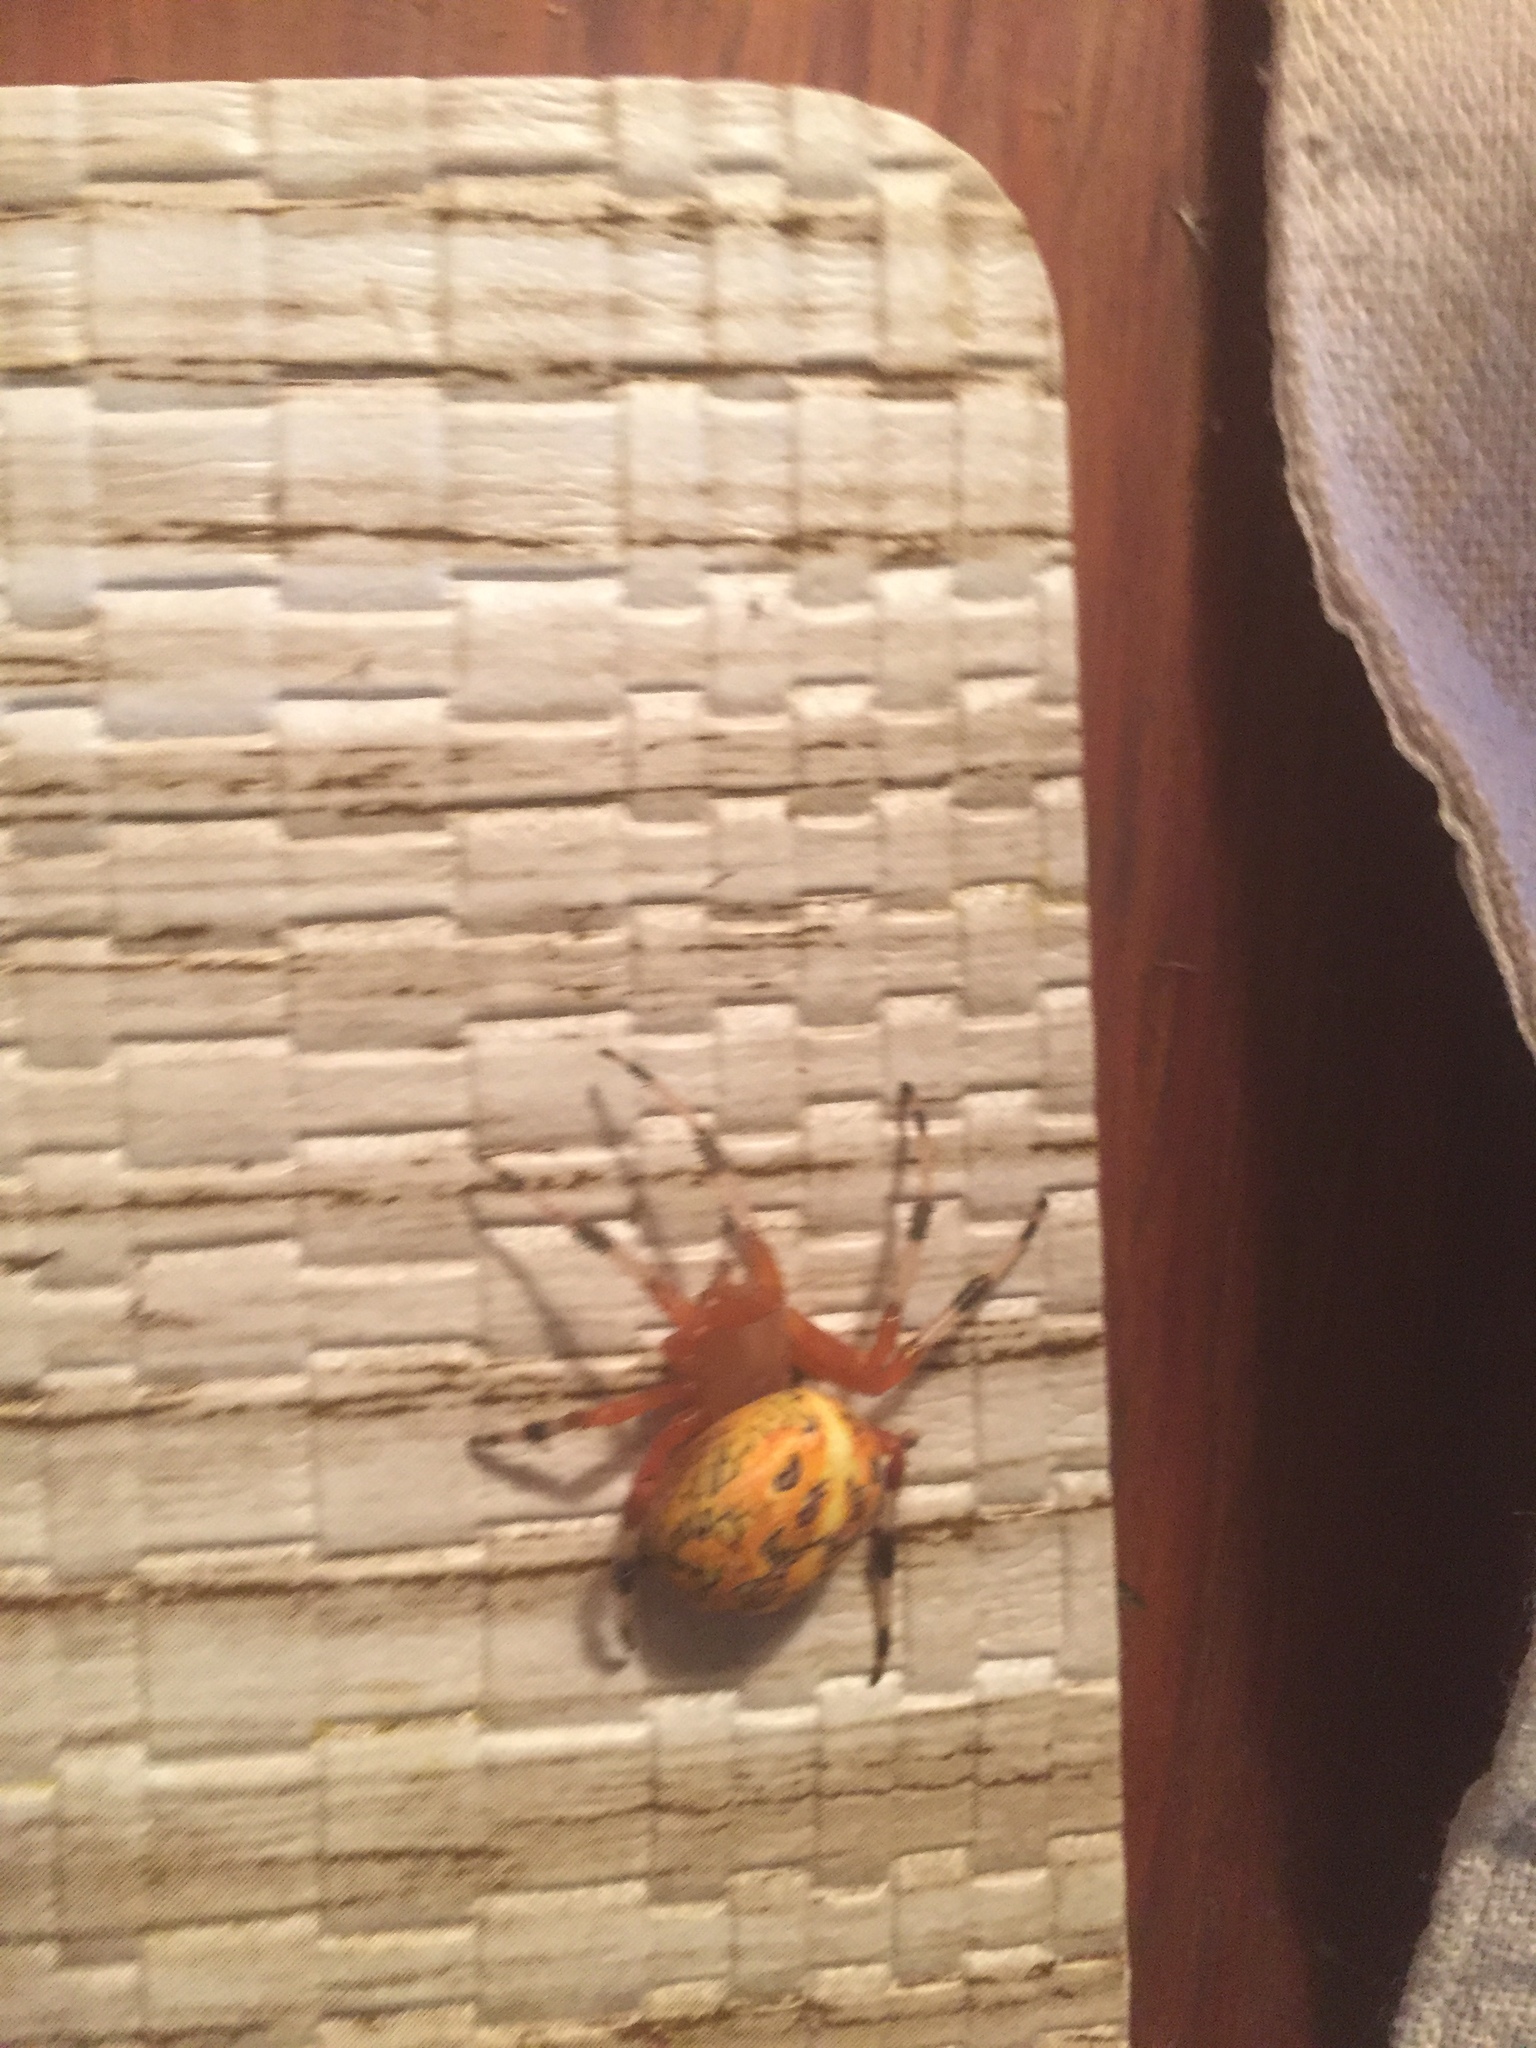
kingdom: Animalia
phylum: Arthropoda
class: Arachnida
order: Araneae
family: Araneidae
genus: Araneus
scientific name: Araneus marmoreus
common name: Marbled orbweaver
